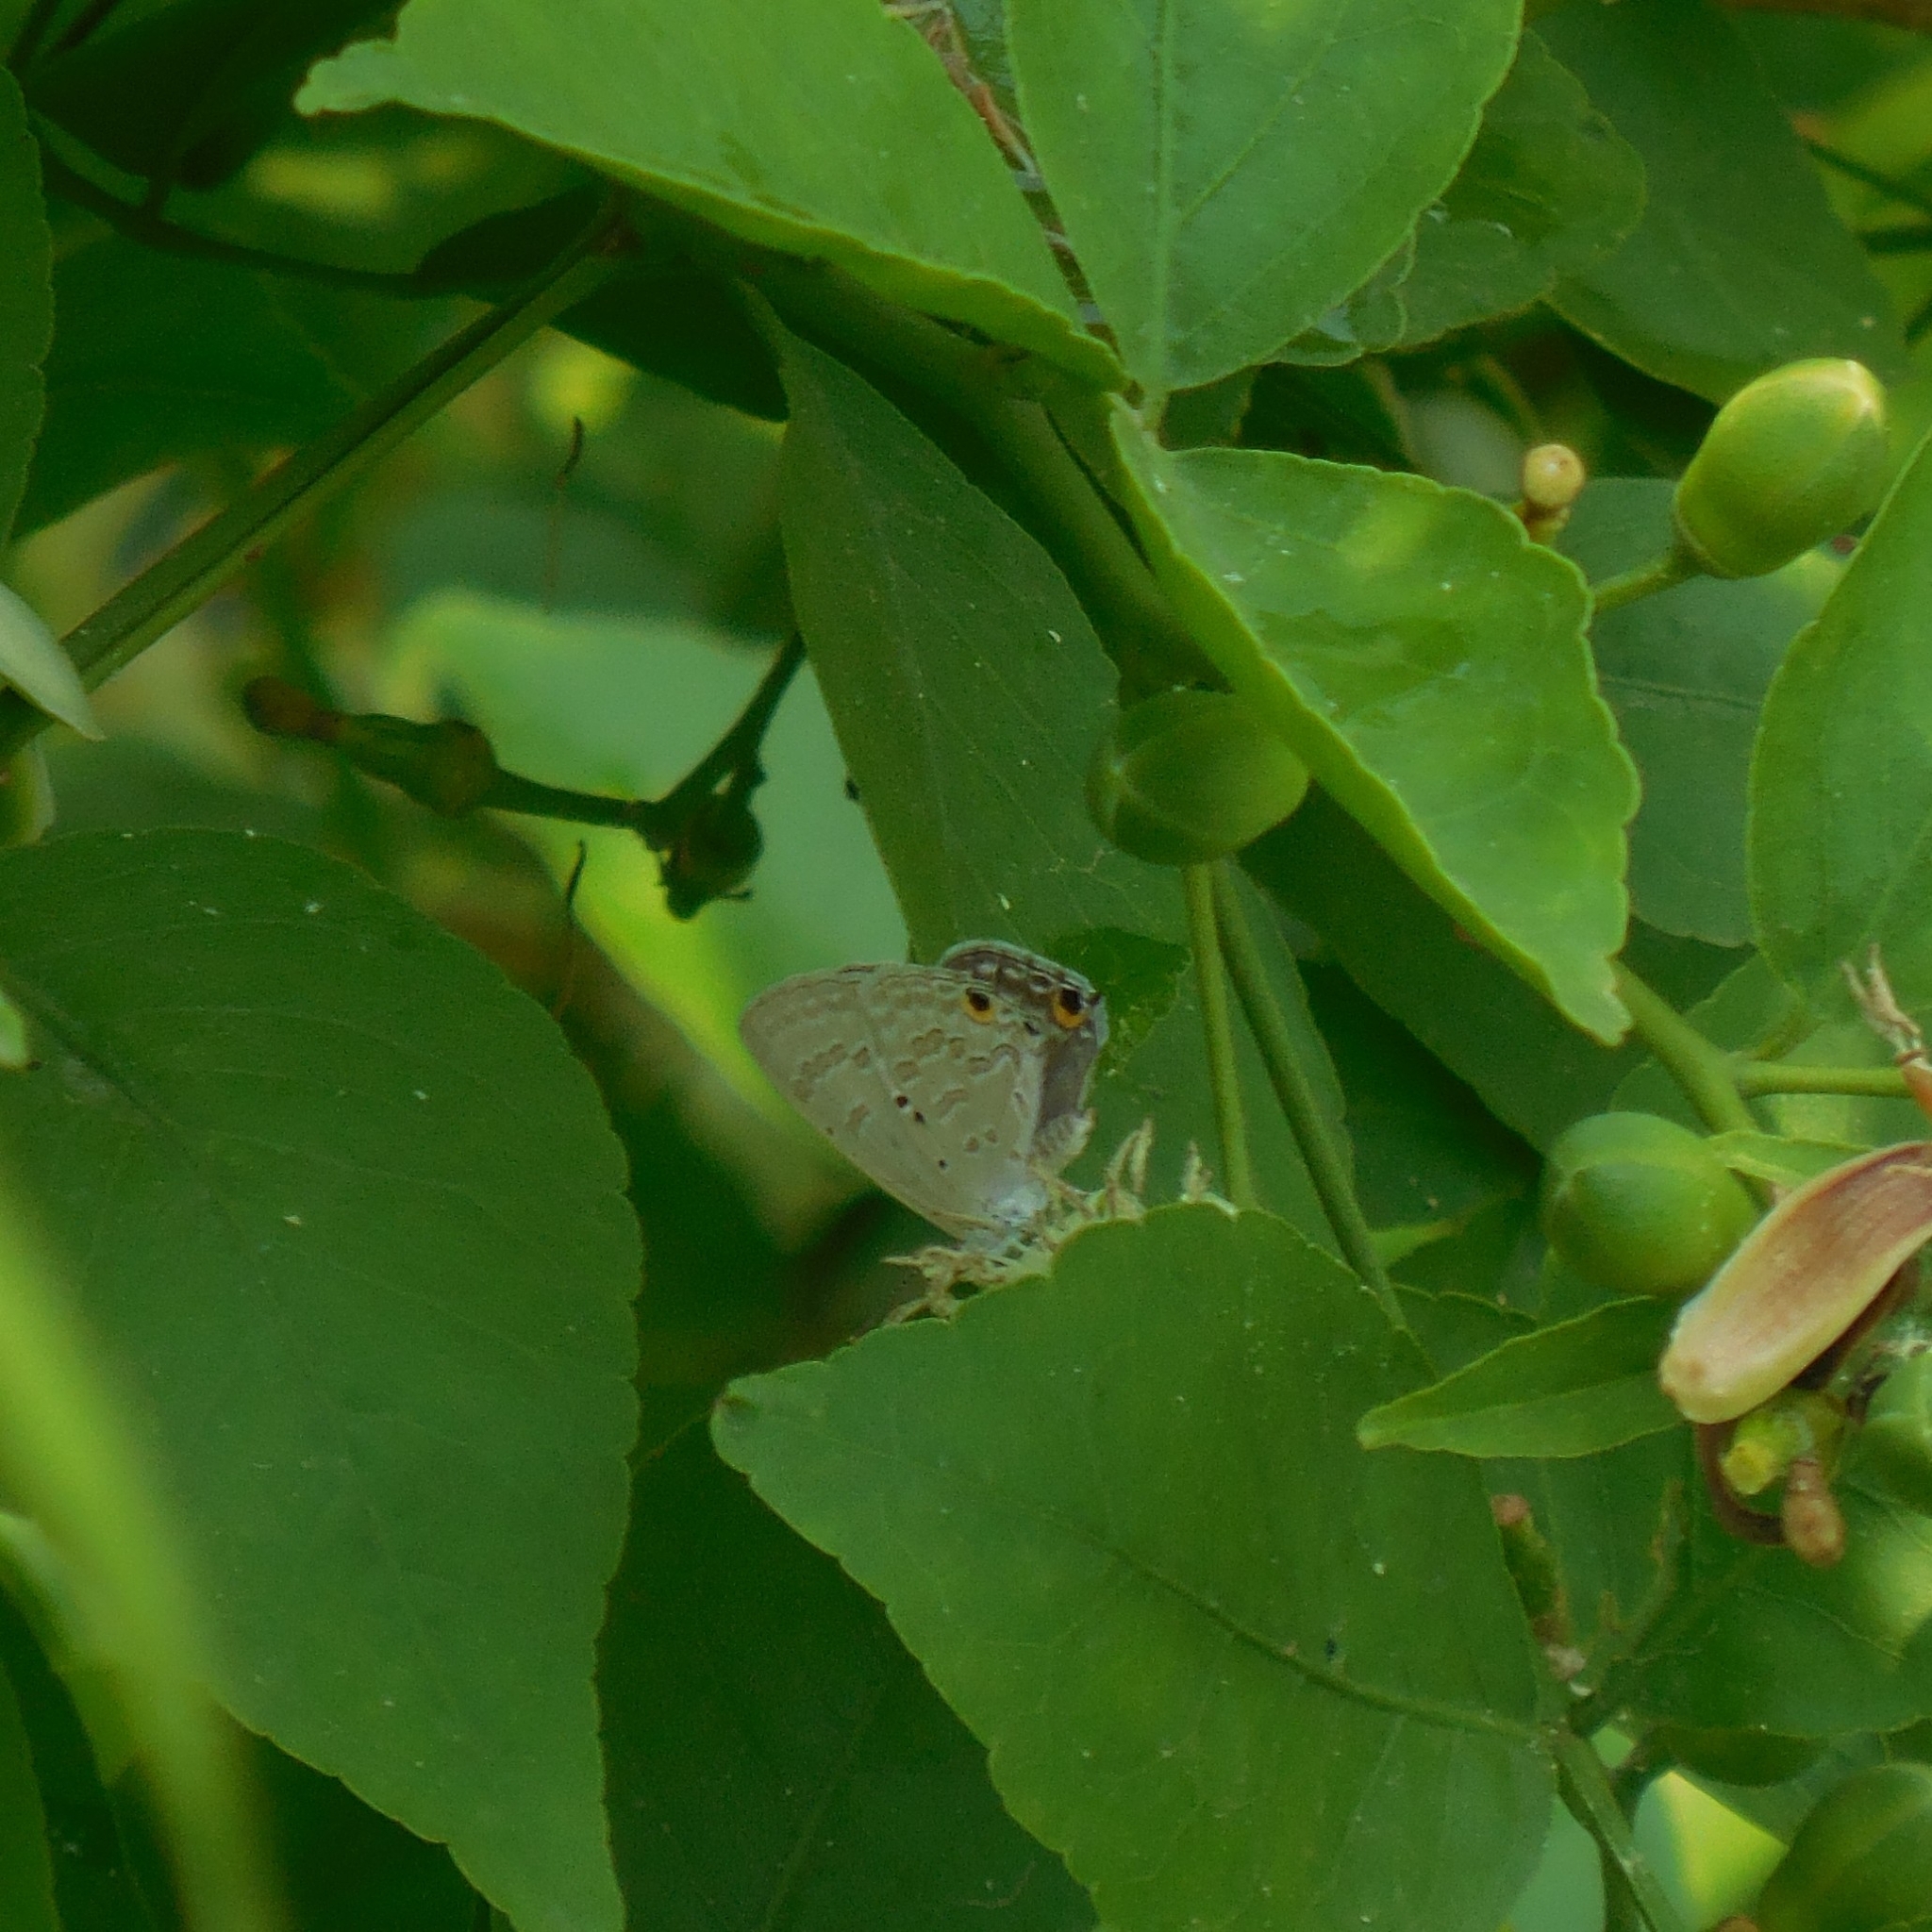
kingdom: Animalia
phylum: Arthropoda
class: Insecta
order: Lepidoptera
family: Lycaenidae
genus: Catochrysops
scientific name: Catochrysops strabo
